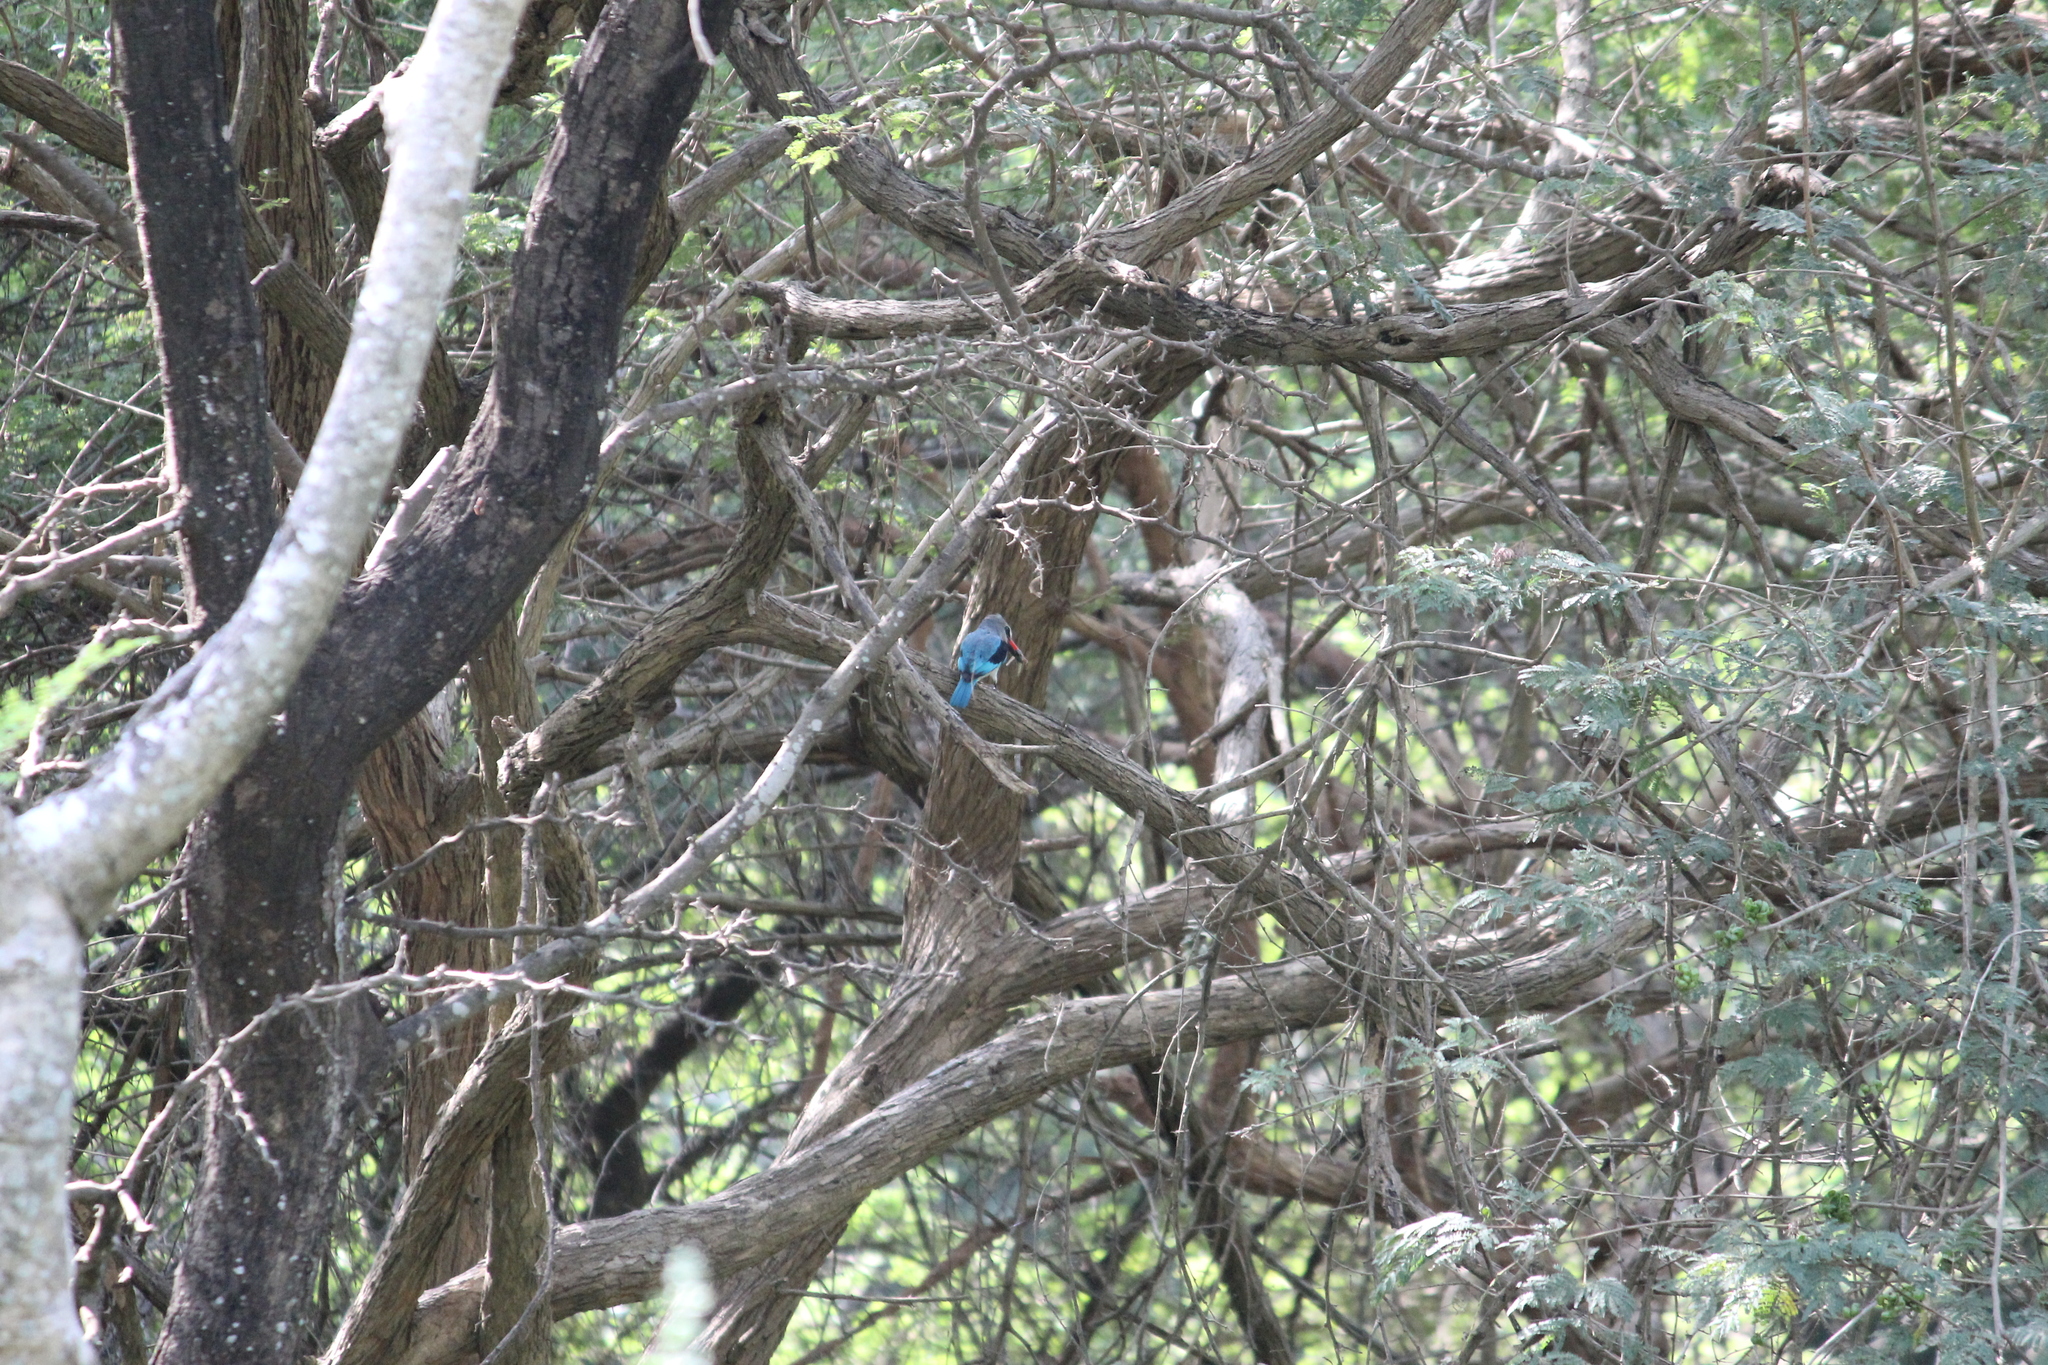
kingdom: Animalia
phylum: Chordata
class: Aves
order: Coraciiformes
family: Alcedinidae
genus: Halcyon
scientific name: Halcyon senegalensis
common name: Woodland kingfisher
